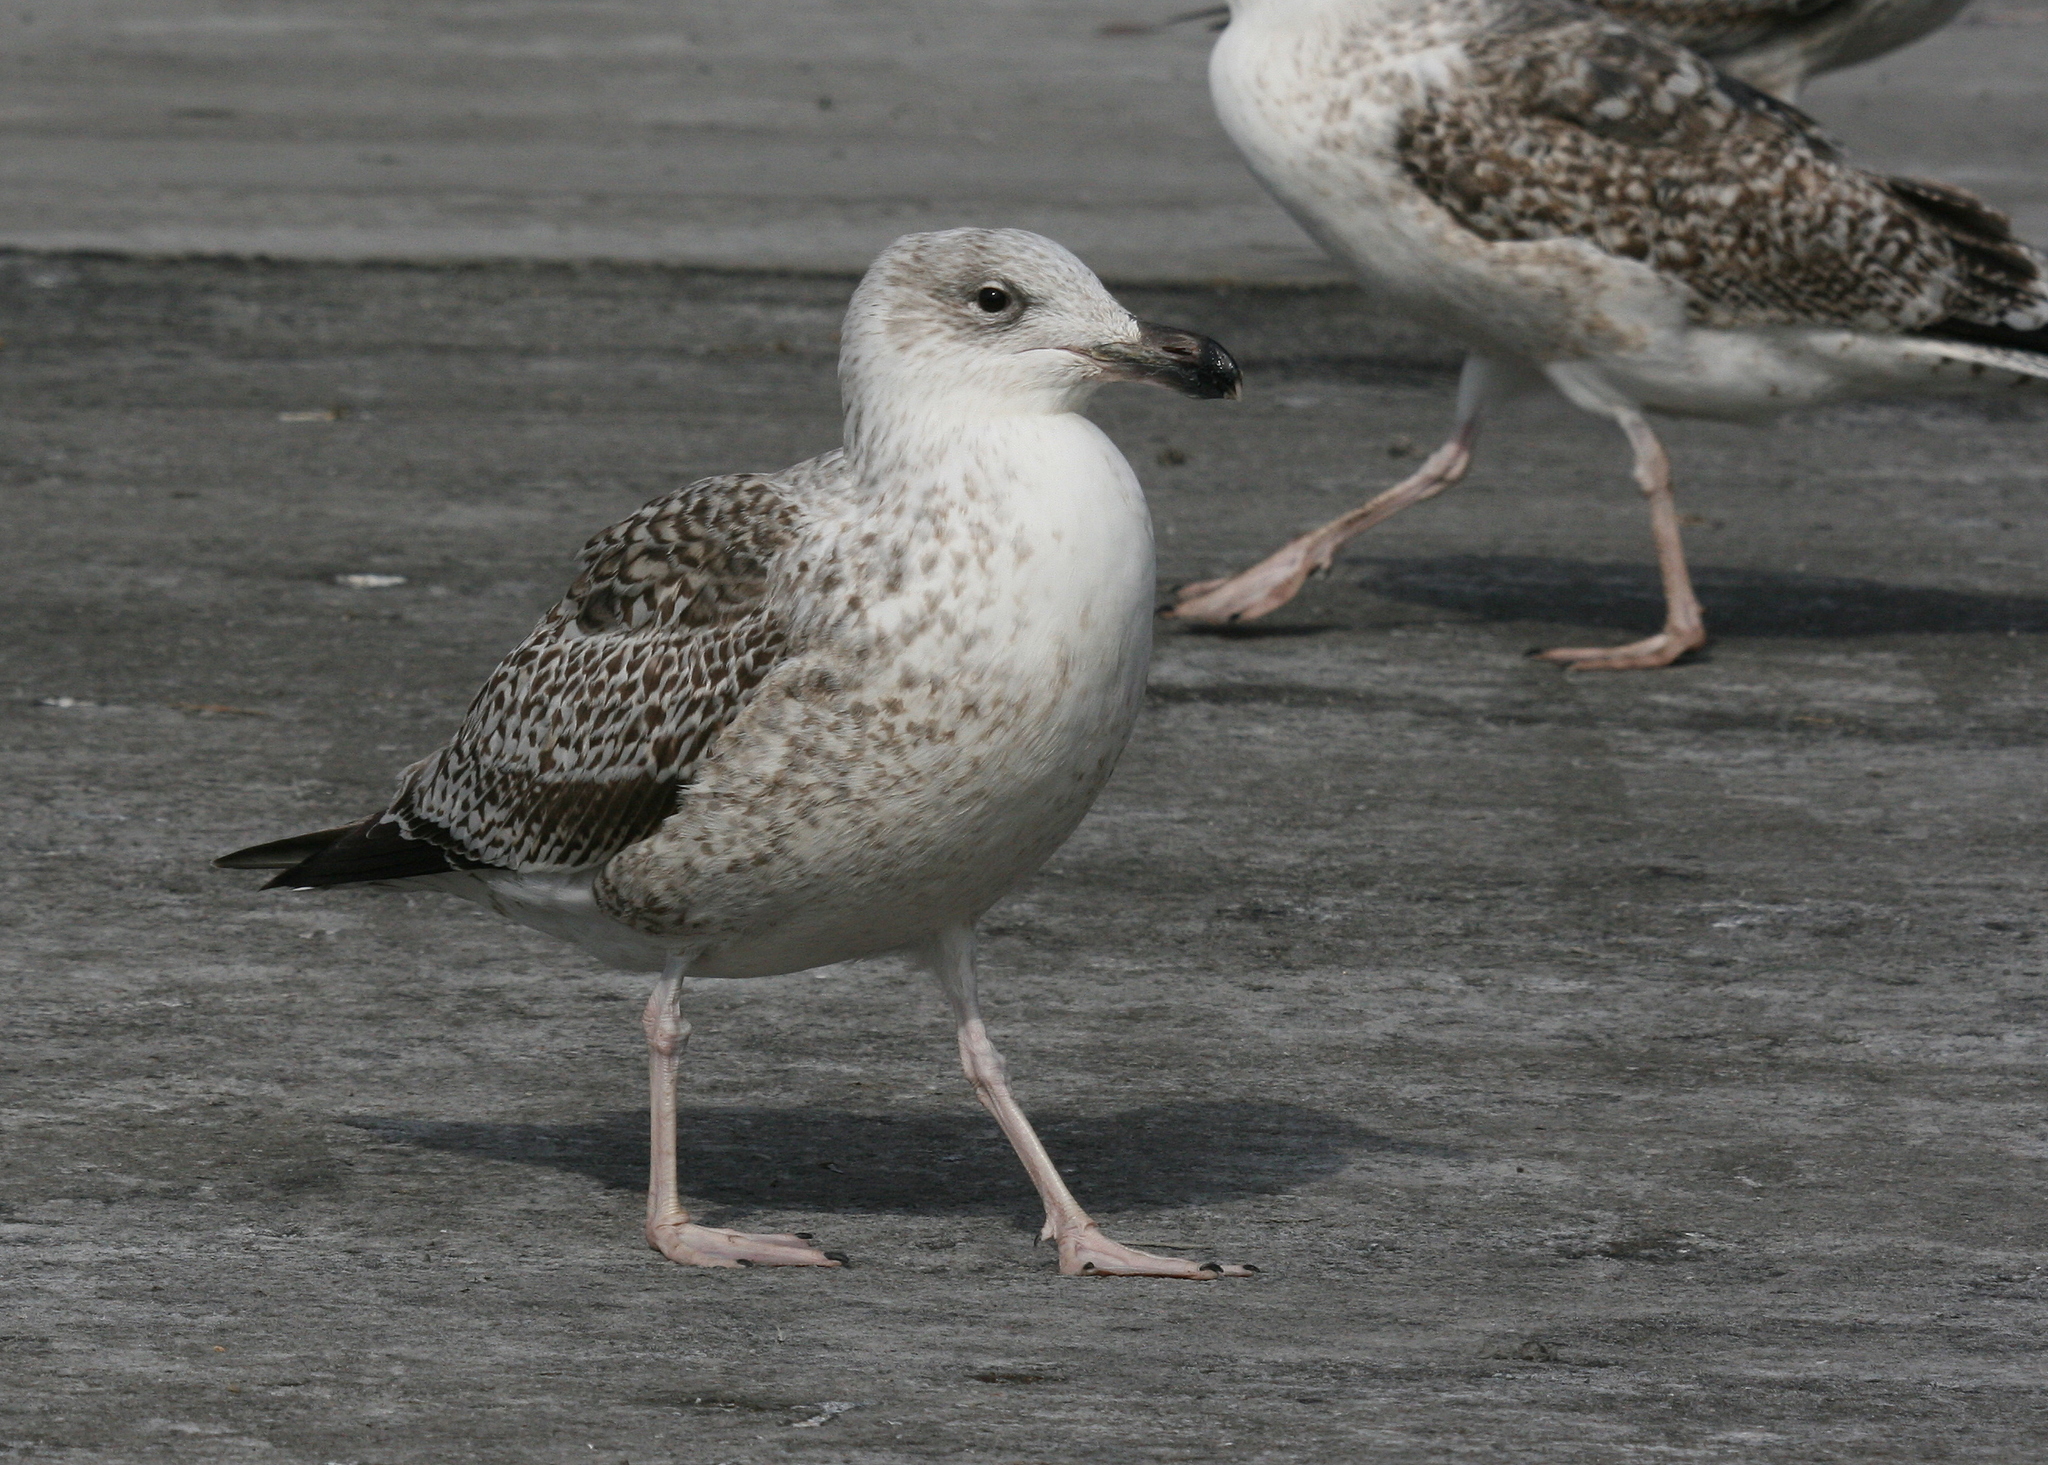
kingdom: Animalia
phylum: Chordata
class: Aves
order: Charadriiformes
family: Laridae
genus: Larus
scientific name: Larus marinus
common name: Great black-backed gull
